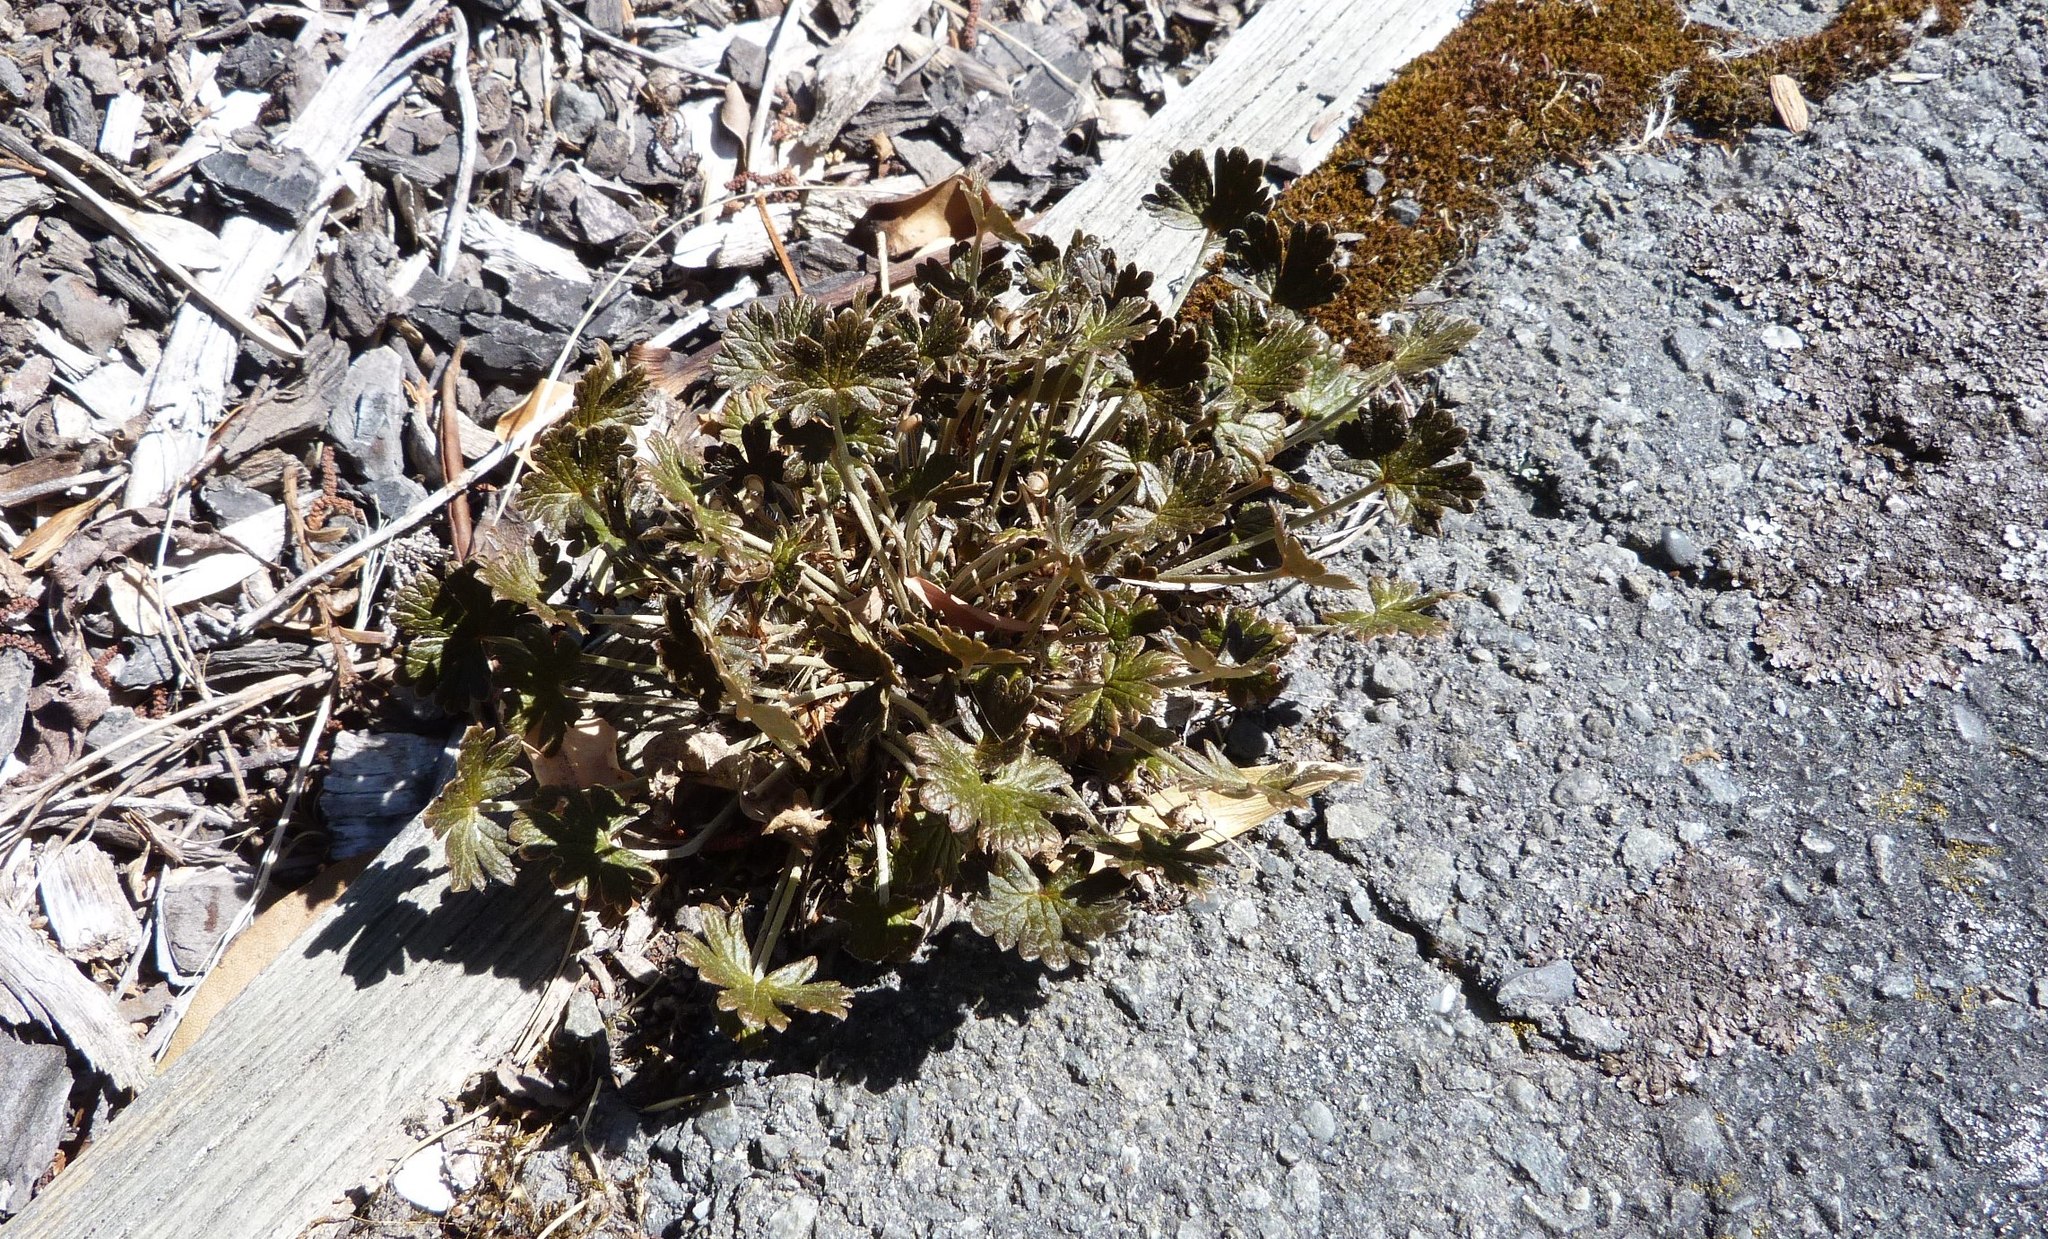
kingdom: Plantae
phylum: Tracheophyta
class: Magnoliopsida
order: Geraniales
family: Geraniaceae
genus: Geranium
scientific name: Geranium brevicaule
